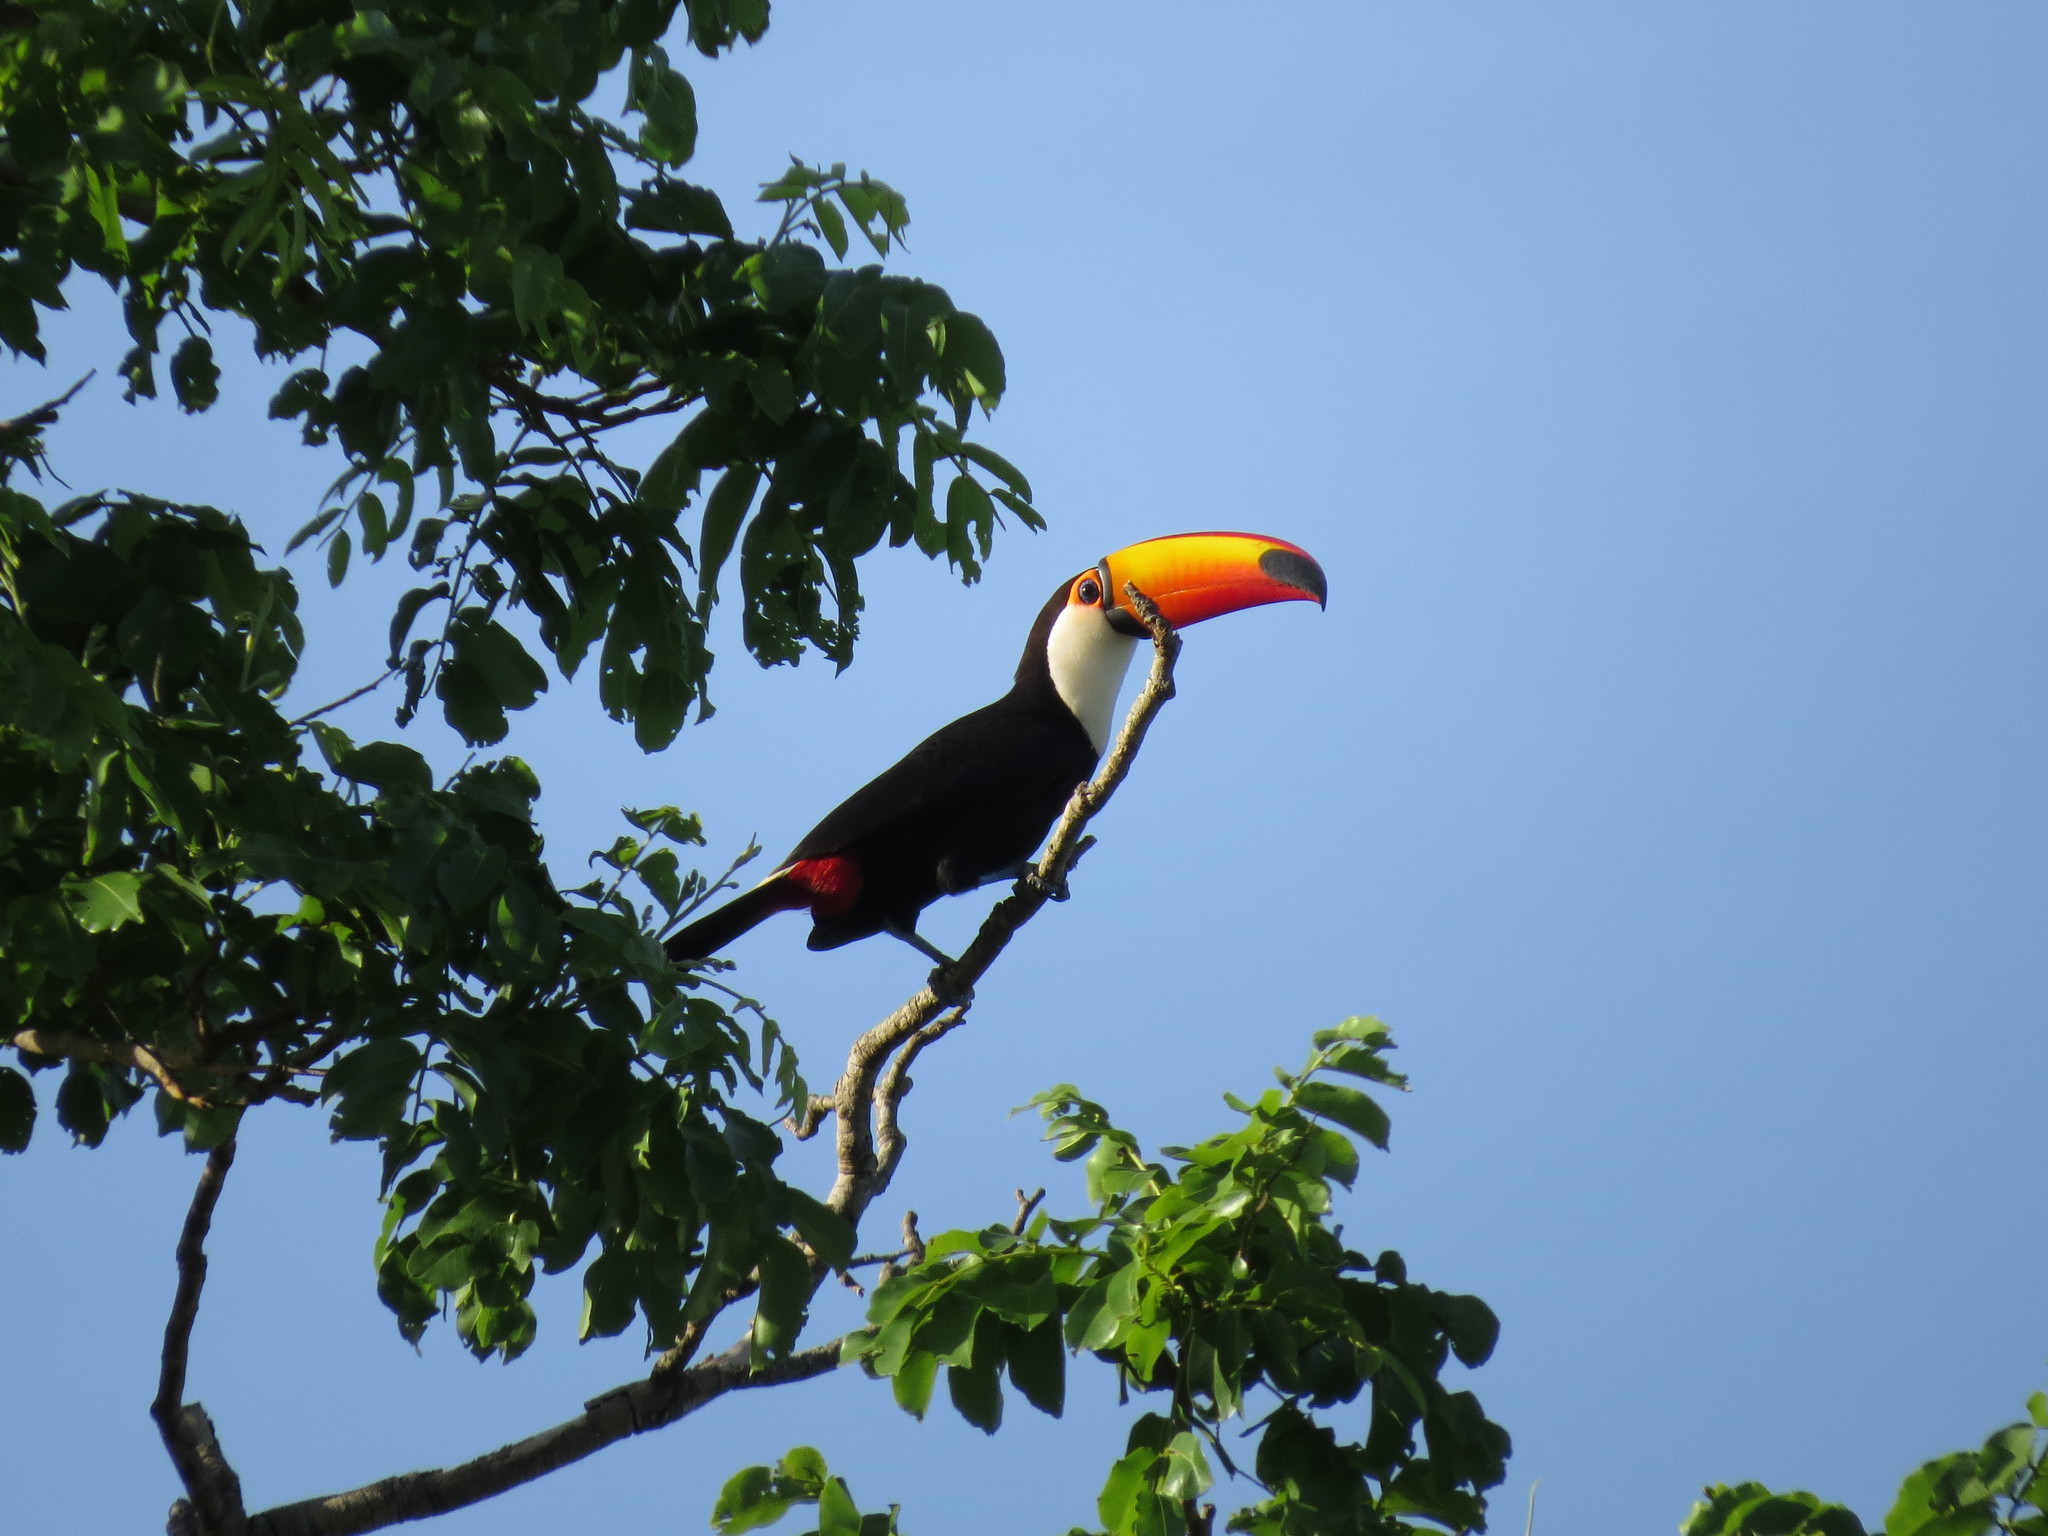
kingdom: Animalia
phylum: Chordata
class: Aves
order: Piciformes
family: Ramphastidae
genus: Ramphastos
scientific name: Ramphastos toco
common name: Toco toucan
